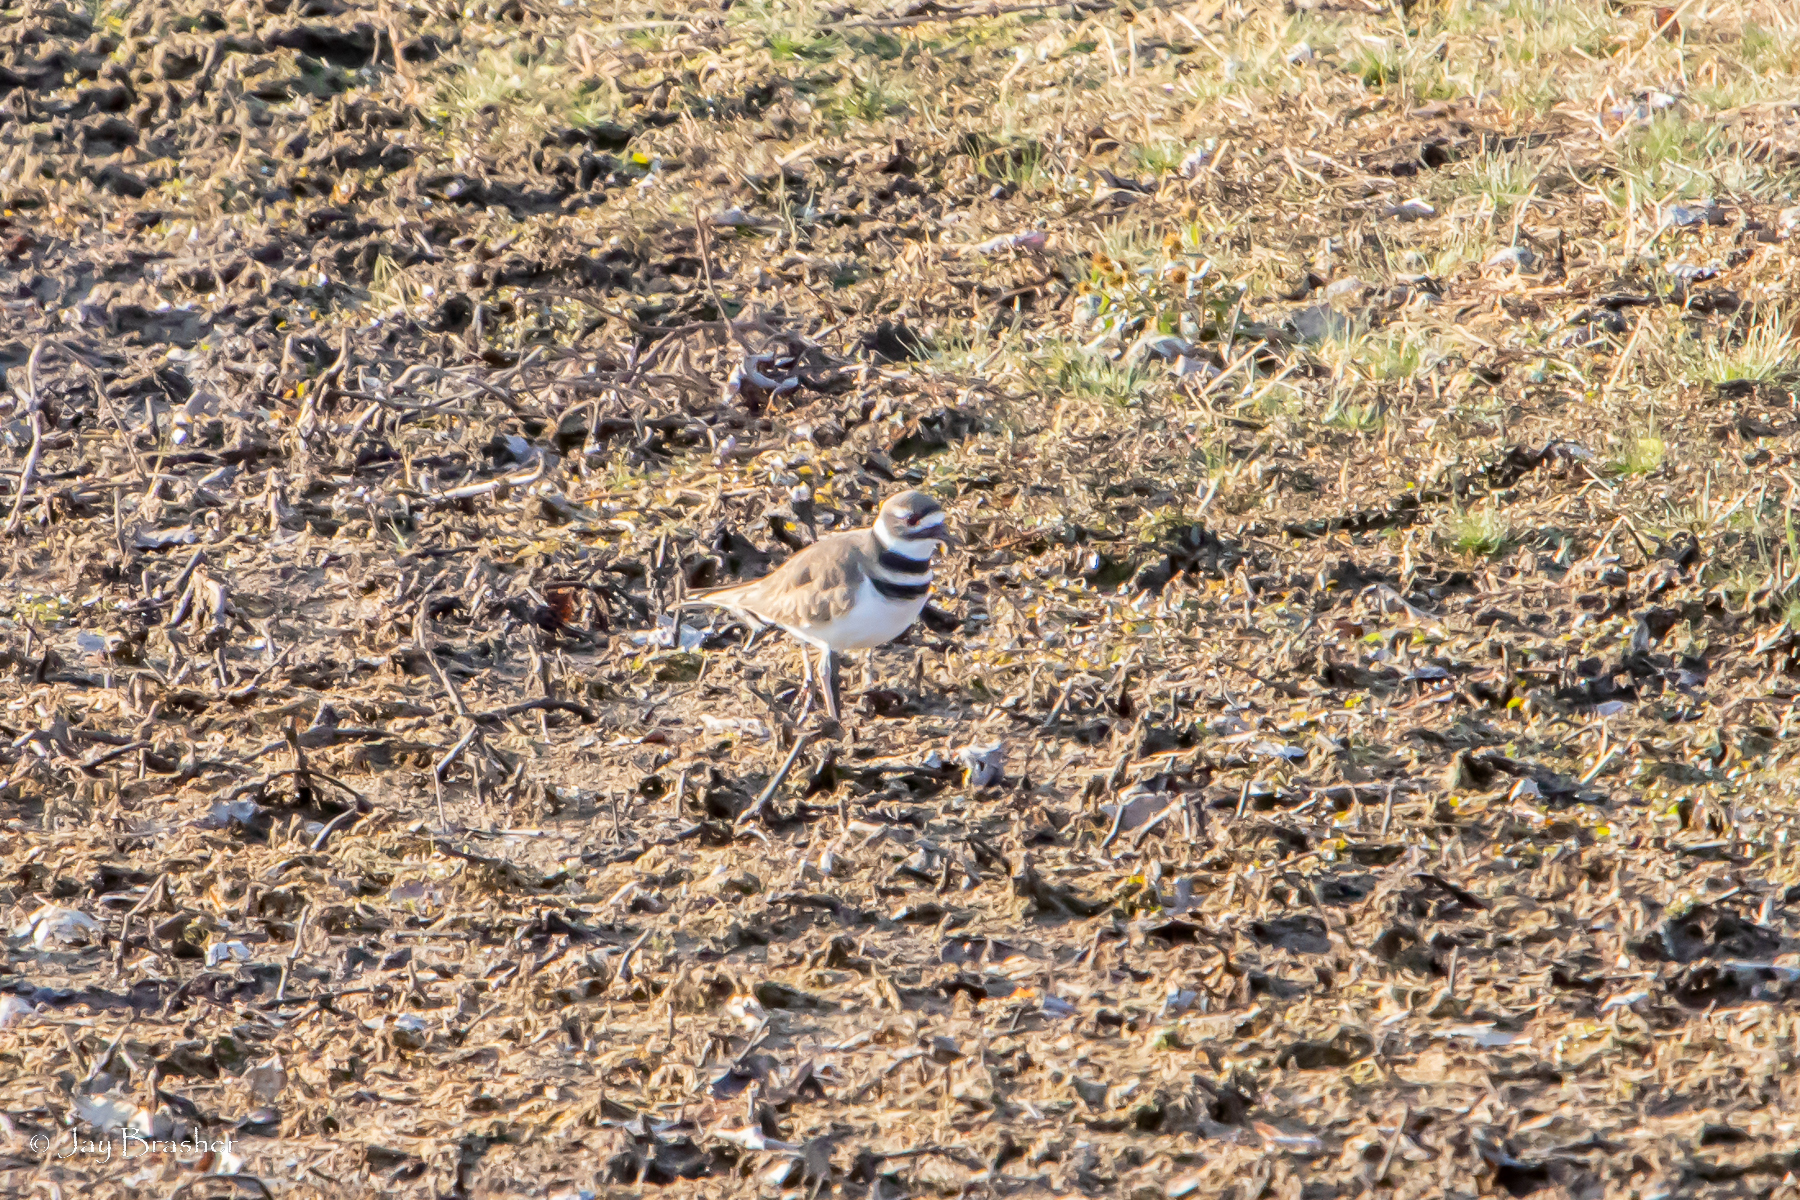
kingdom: Animalia
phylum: Chordata
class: Aves
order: Charadriiformes
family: Charadriidae
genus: Charadrius
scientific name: Charadrius vociferus
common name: Killdeer
